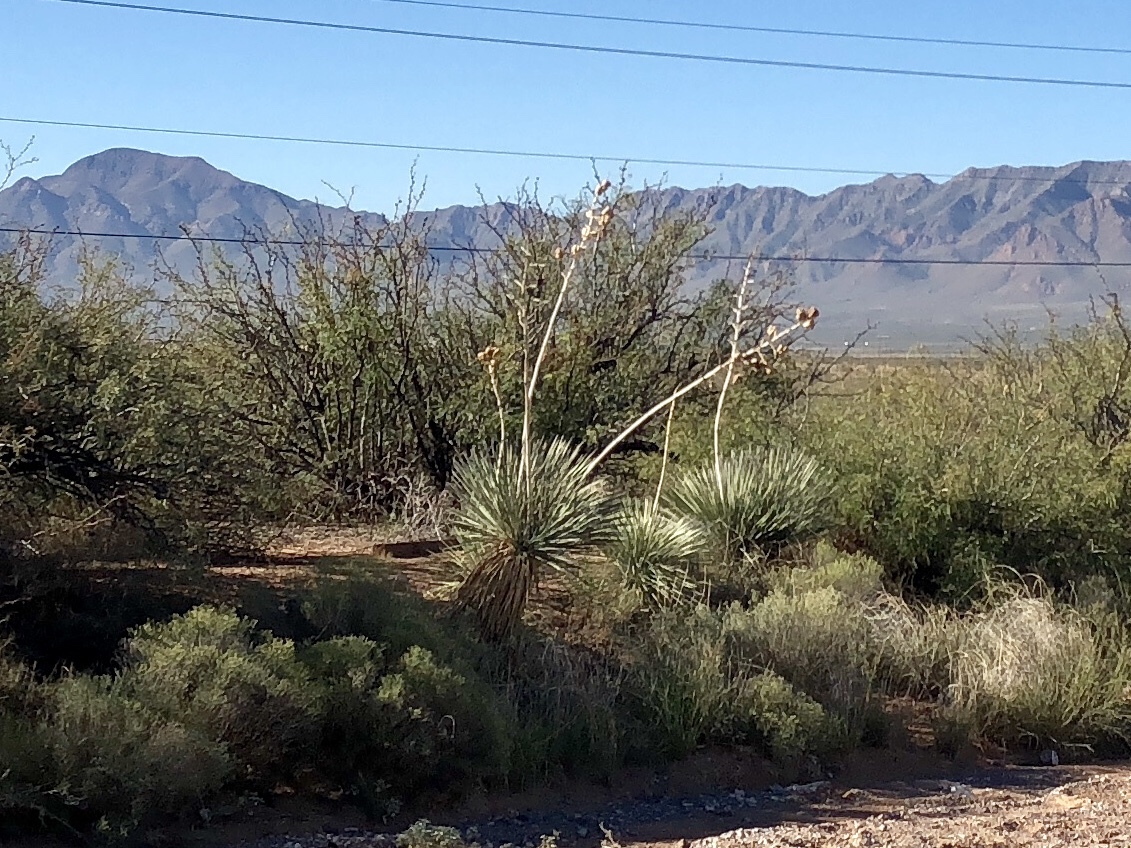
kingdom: Plantae
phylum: Tracheophyta
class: Liliopsida
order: Asparagales
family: Asparagaceae
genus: Yucca
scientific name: Yucca elata
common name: Palmella
